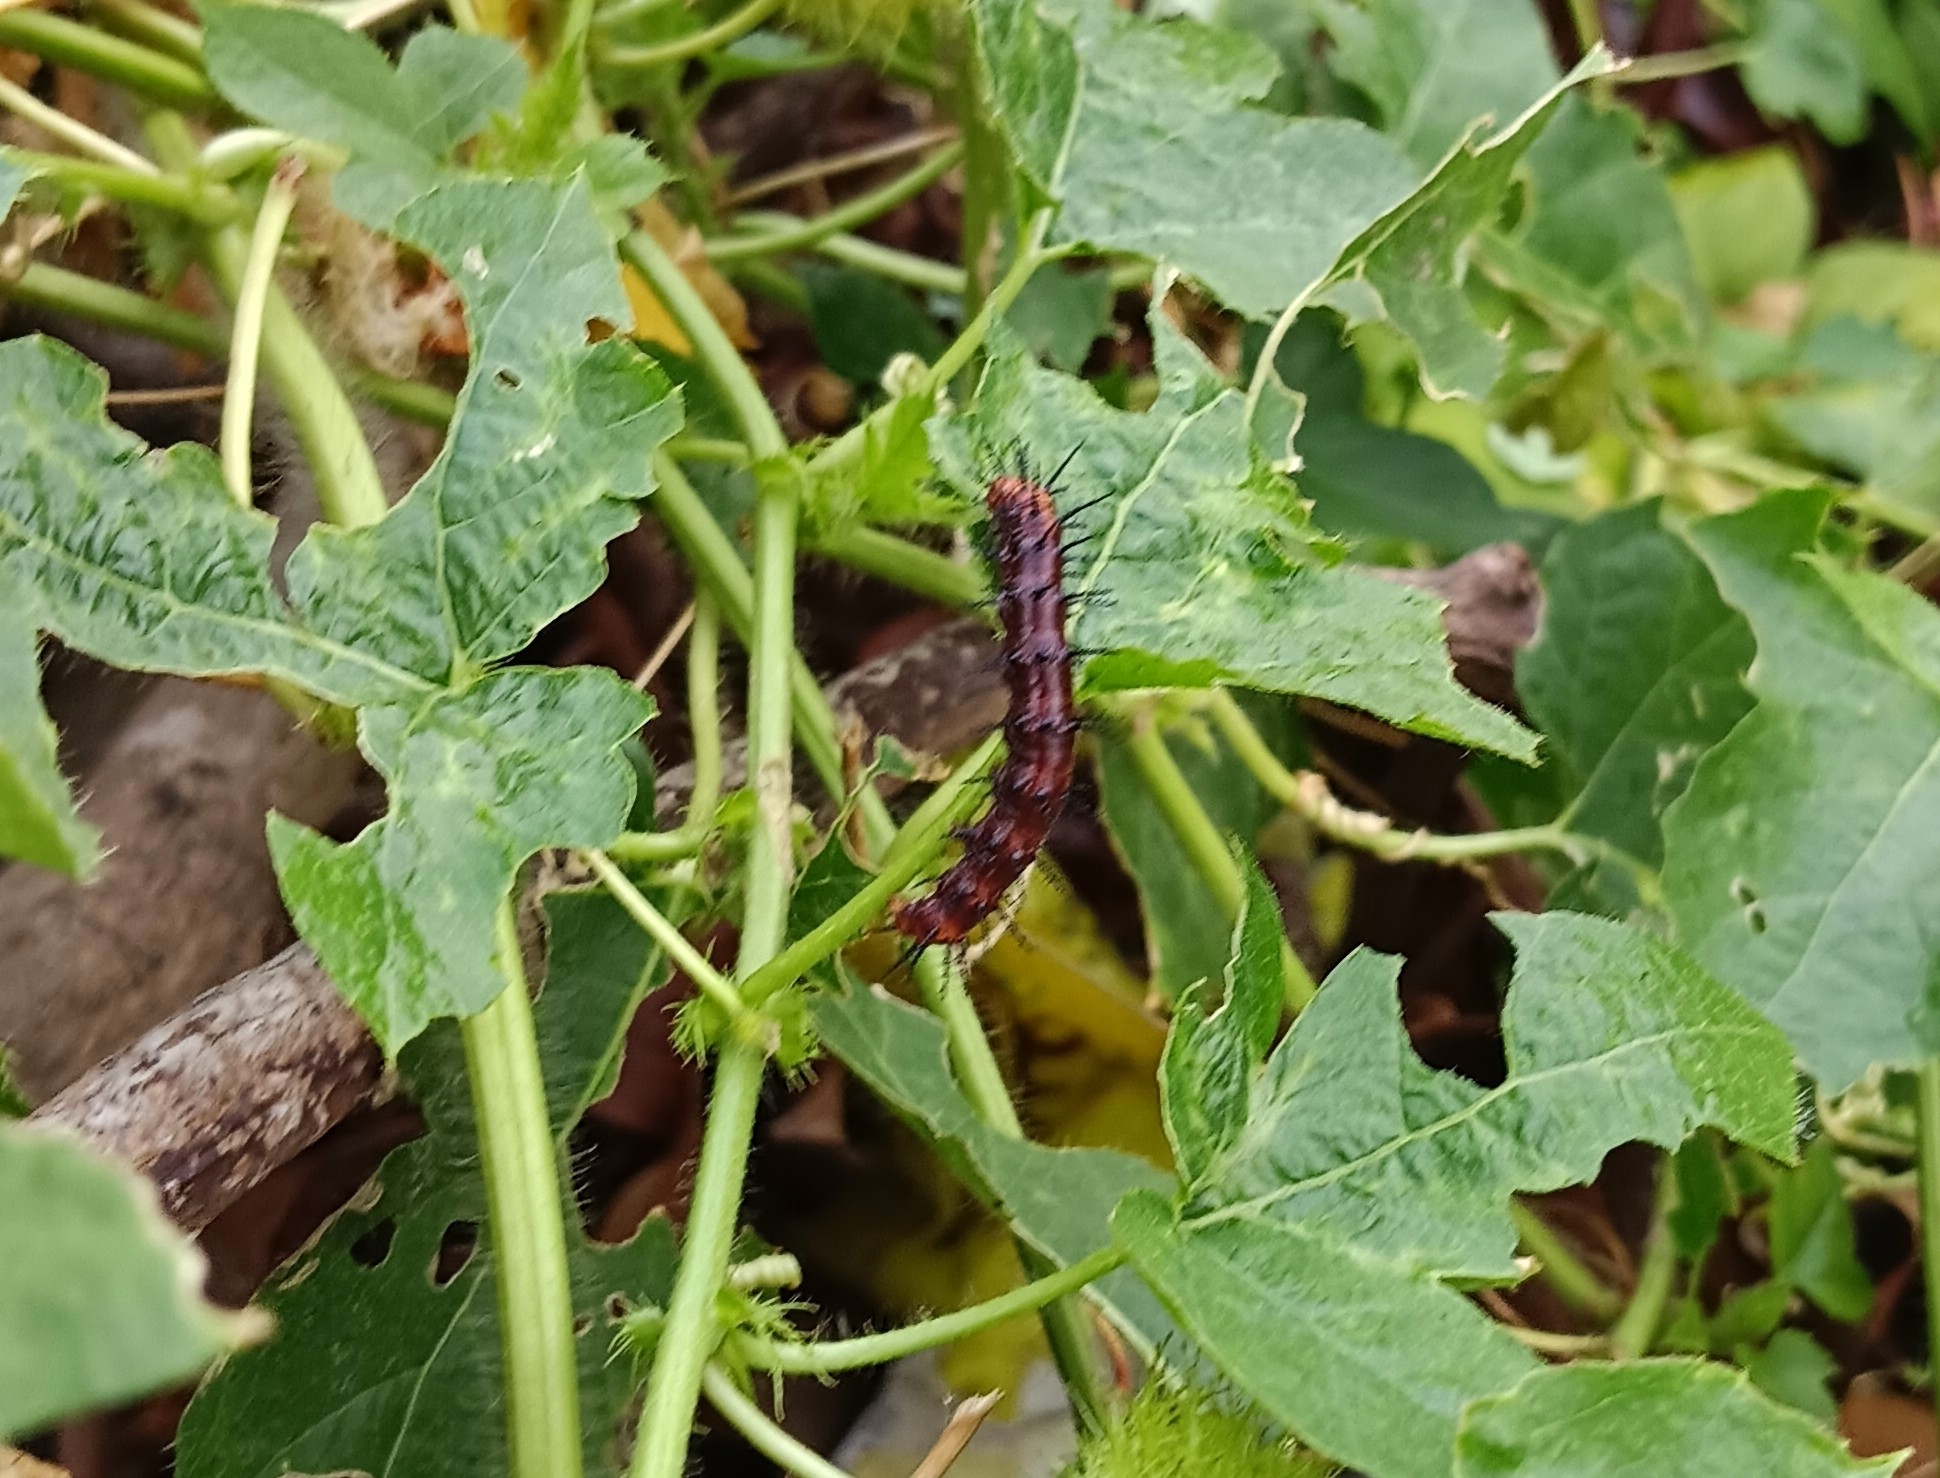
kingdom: Animalia
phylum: Arthropoda
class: Insecta
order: Lepidoptera
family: Nymphalidae
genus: Acraea
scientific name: Acraea terpsicore
